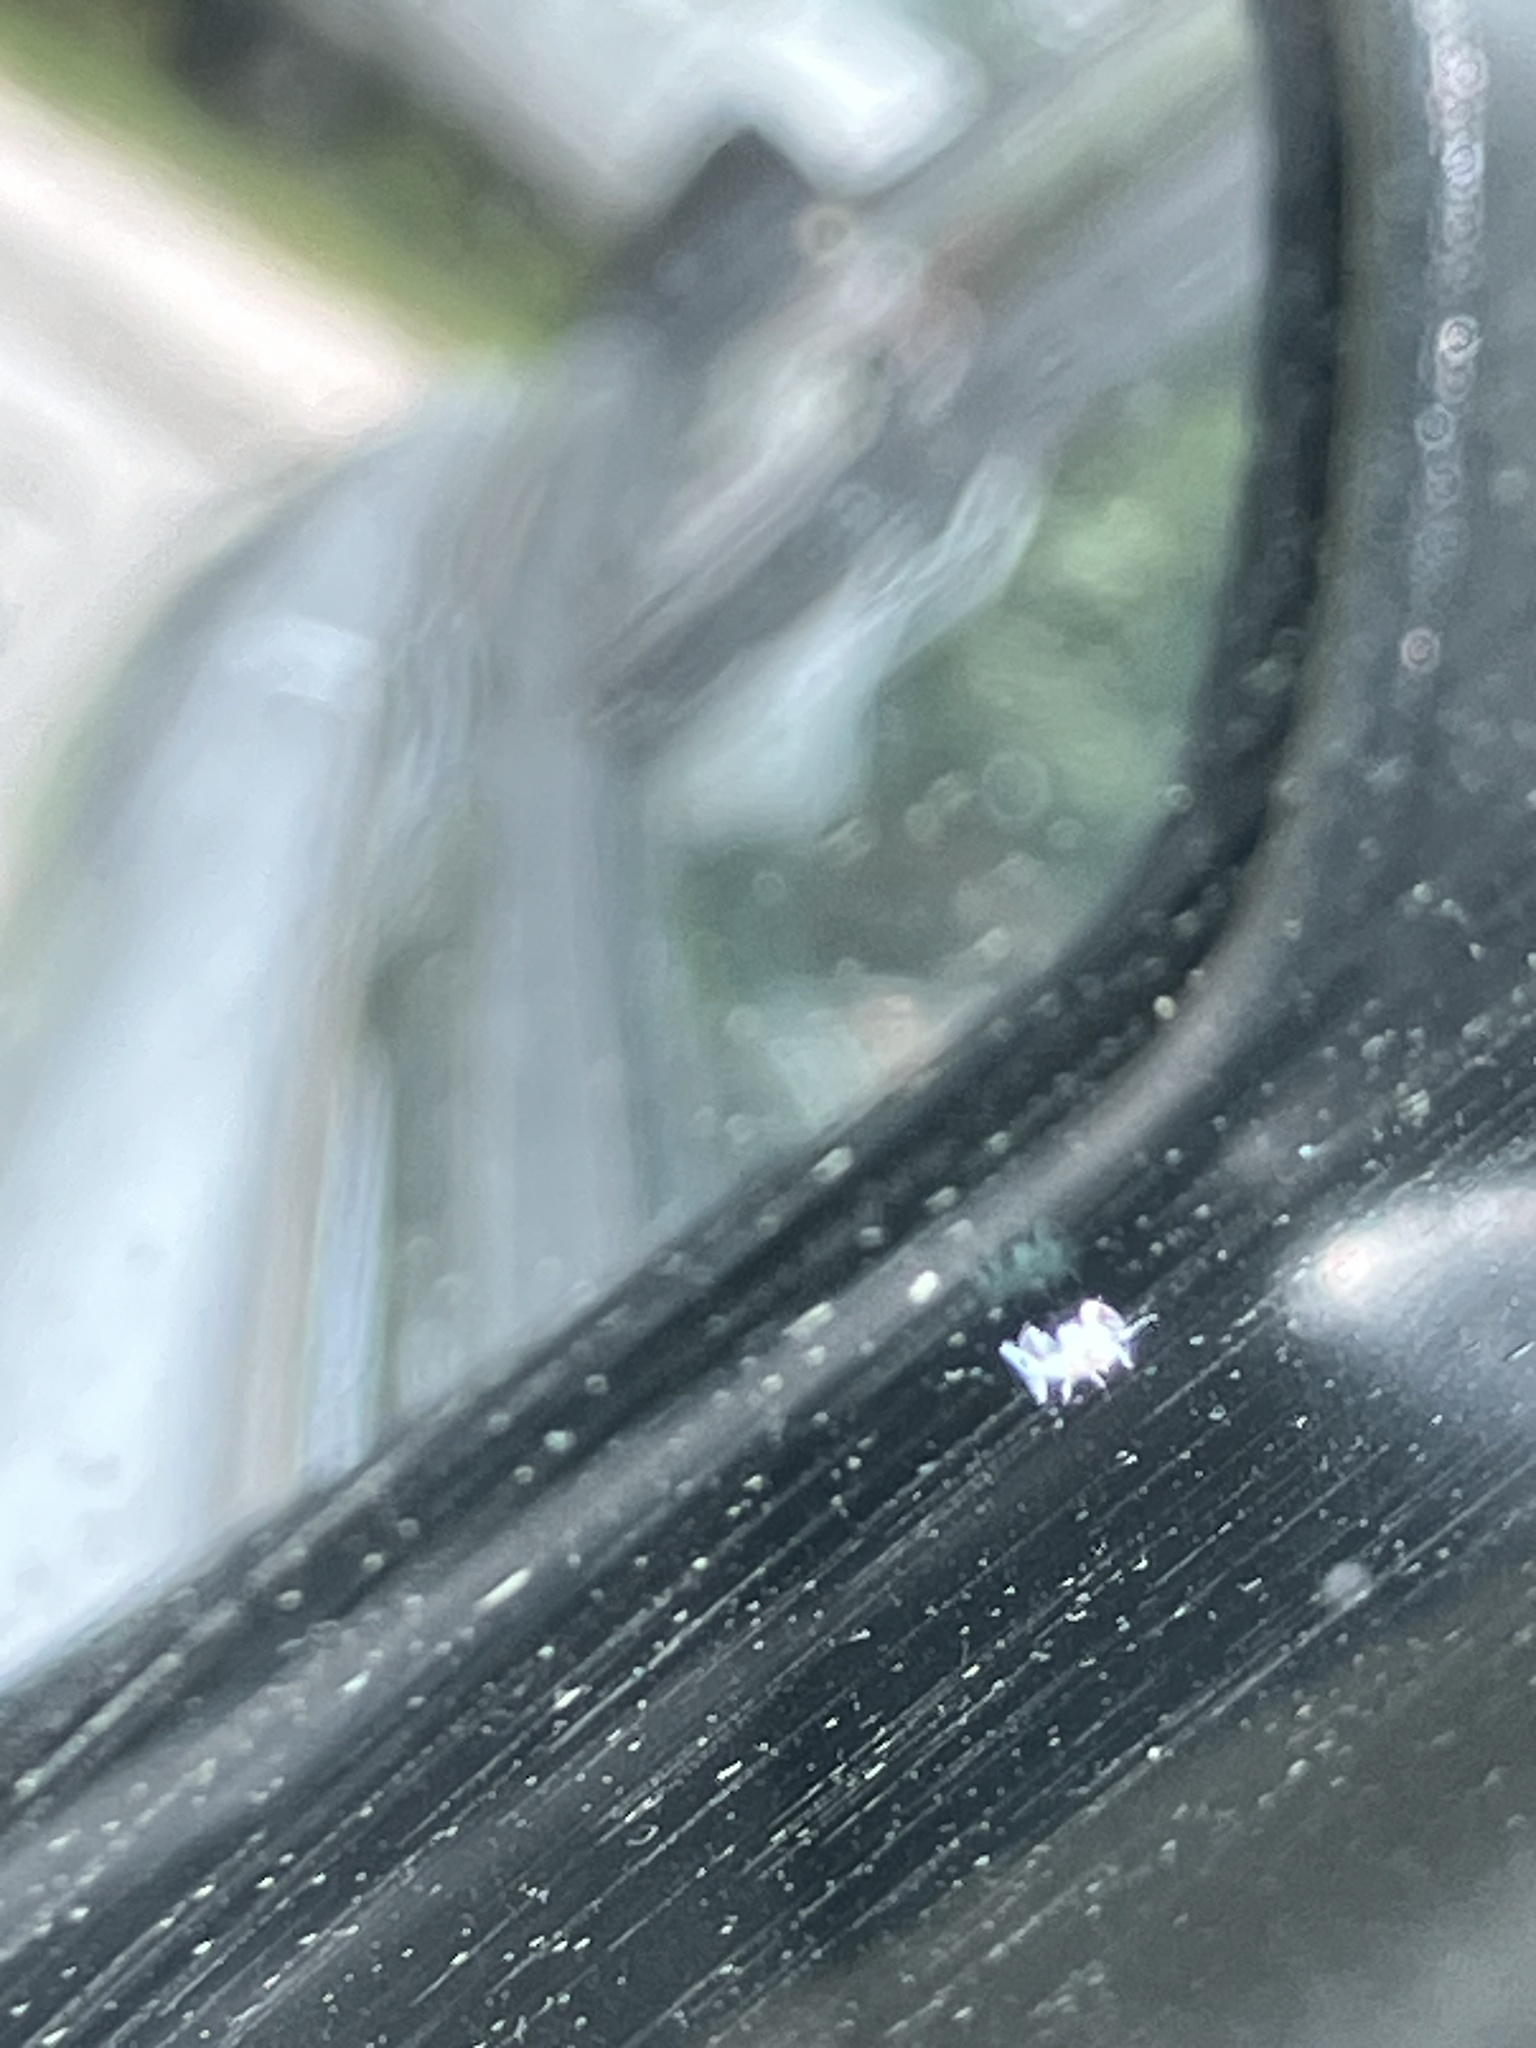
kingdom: Animalia
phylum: Arthropoda
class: Insecta
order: Hemiptera
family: Aphididae
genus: Shivaphis
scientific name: Shivaphis celti
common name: Asian wooly hackberry aphid
